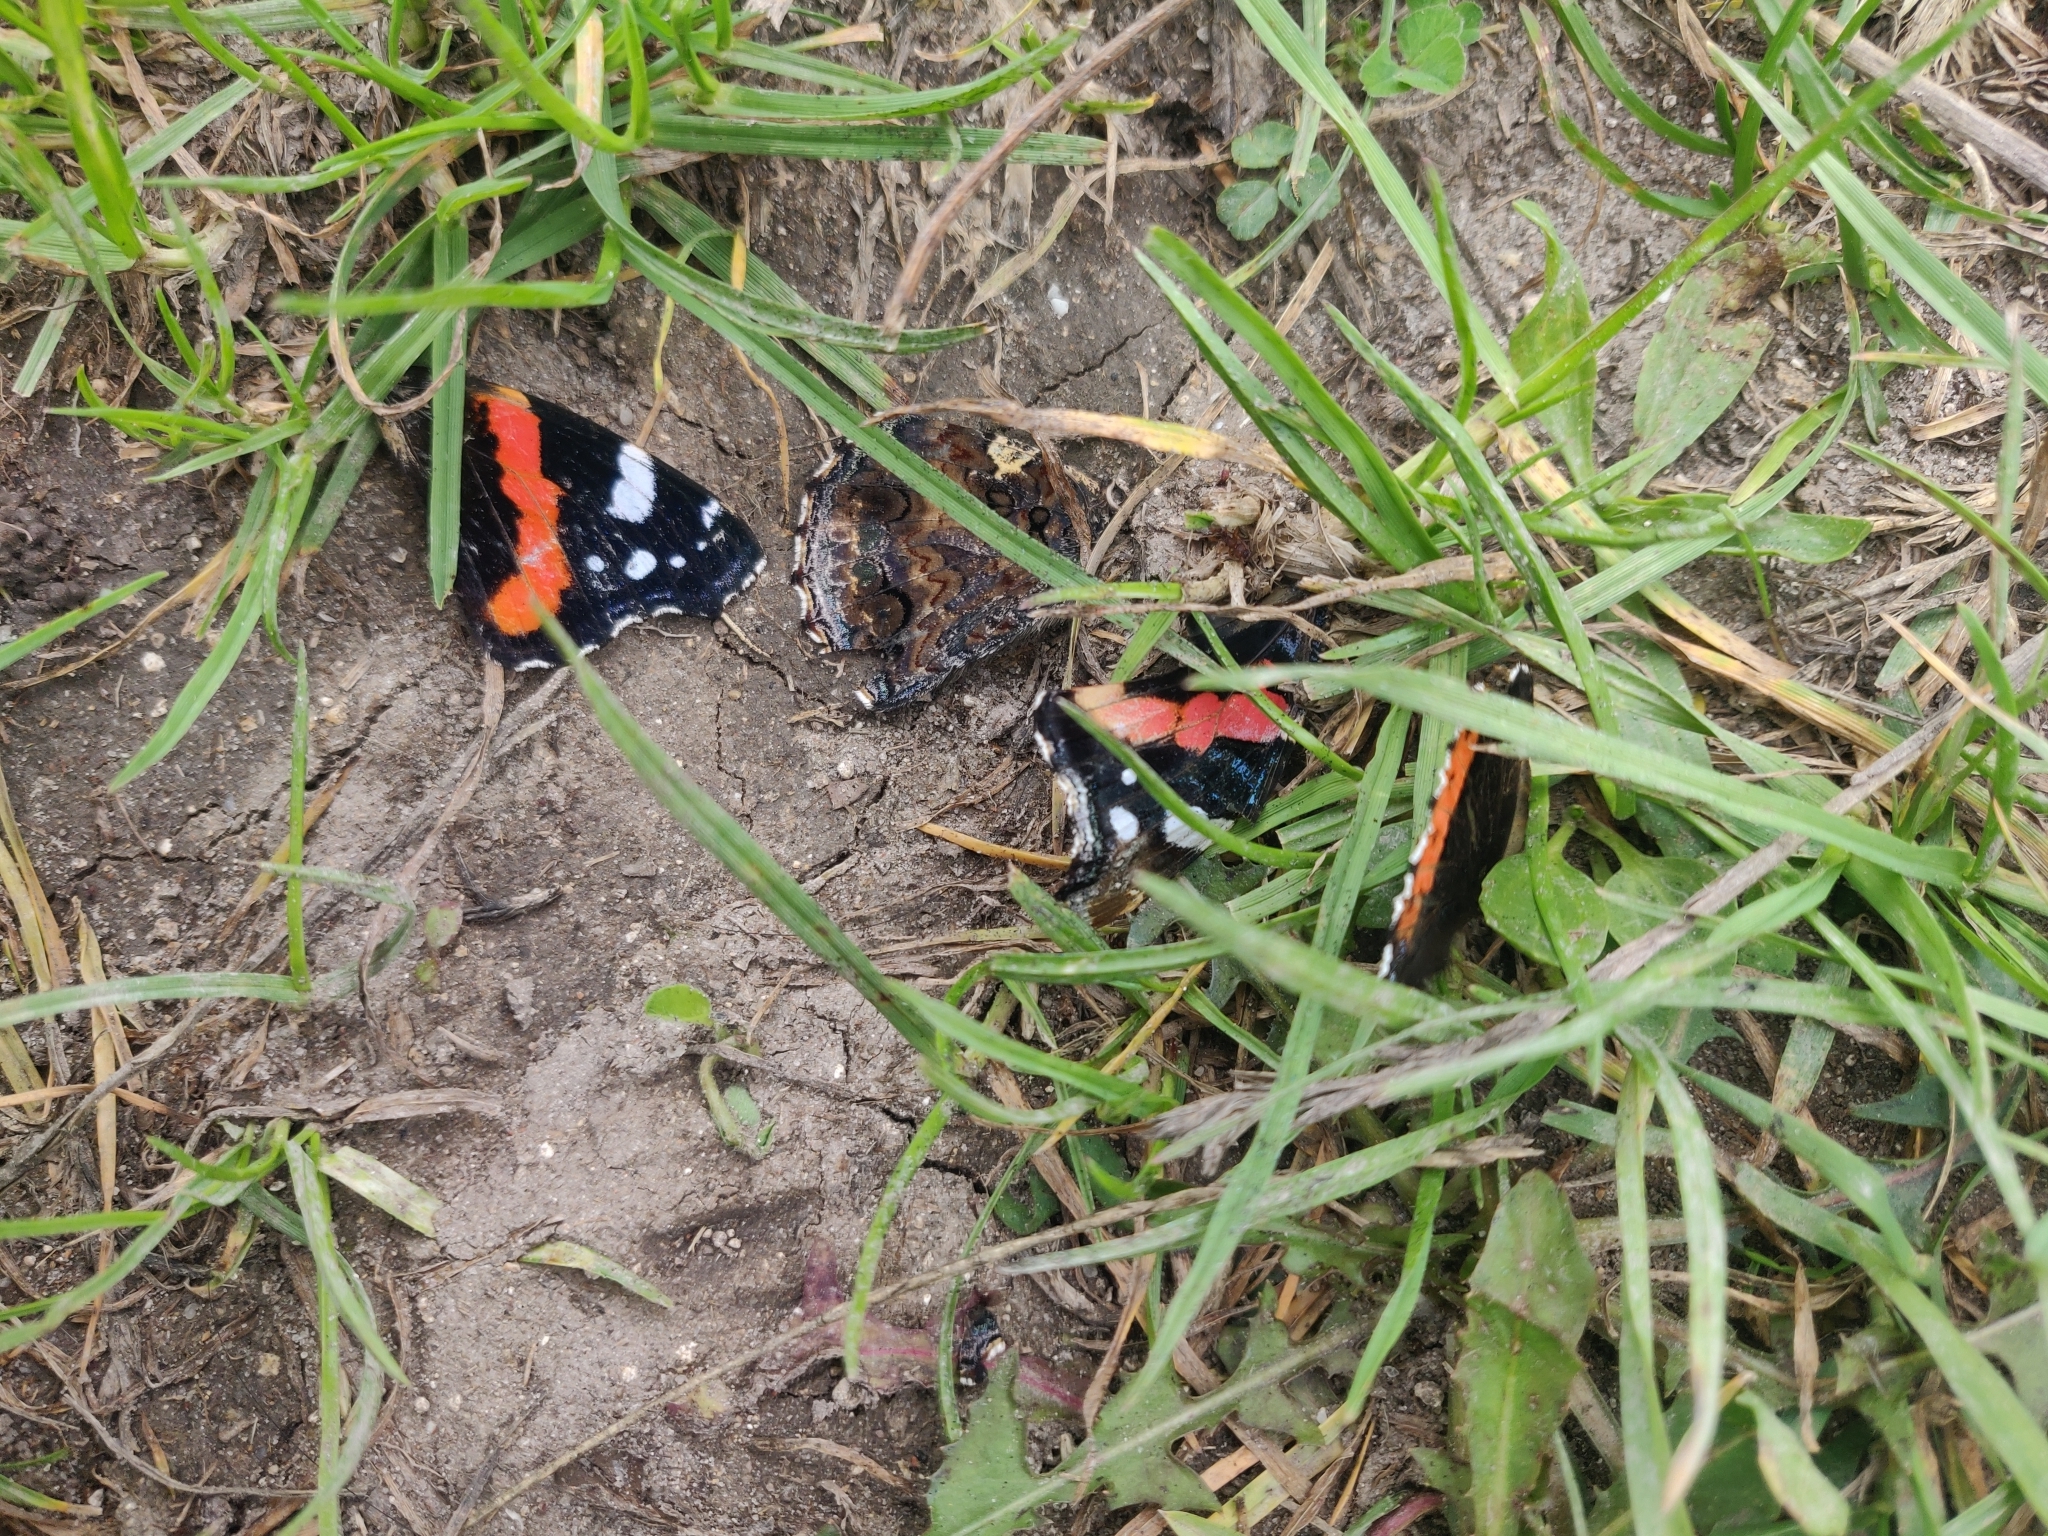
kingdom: Animalia
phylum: Arthropoda
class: Insecta
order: Lepidoptera
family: Nymphalidae
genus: Vanessa
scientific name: Vanessa atalanta
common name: Red admiral
